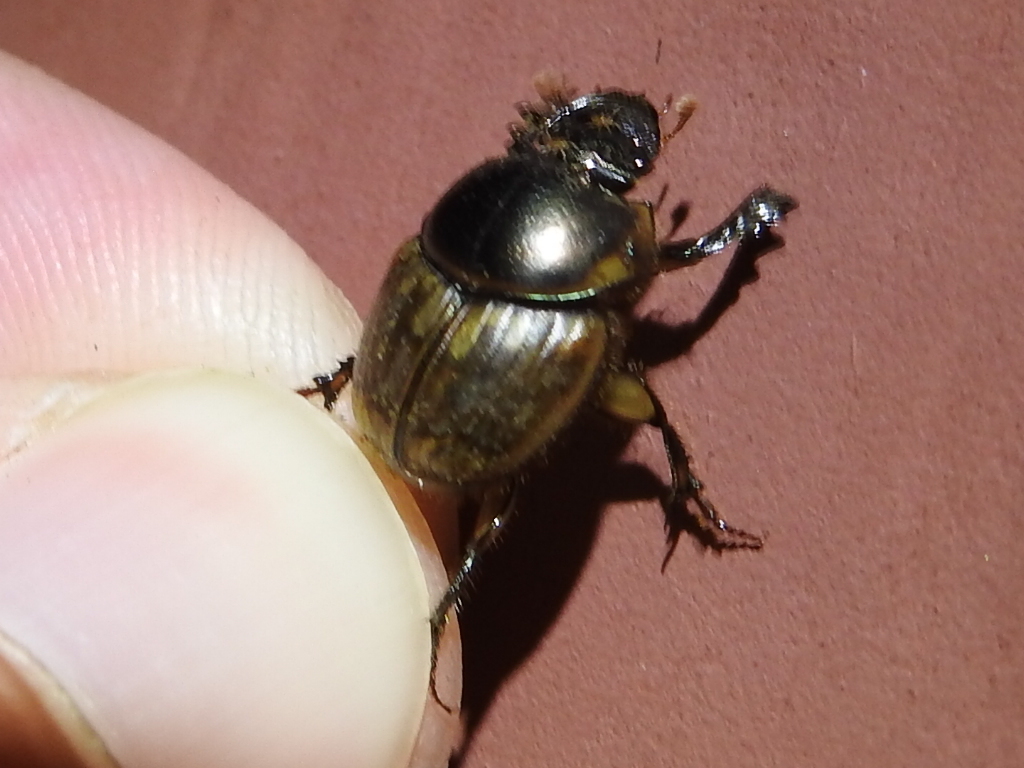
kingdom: Animalia
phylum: Arthropoda
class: Insecta
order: Coleoptera
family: Scarabaeidae
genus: Digitonthophagus
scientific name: Digitonthophagus gazella
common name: Brown dung beetle
